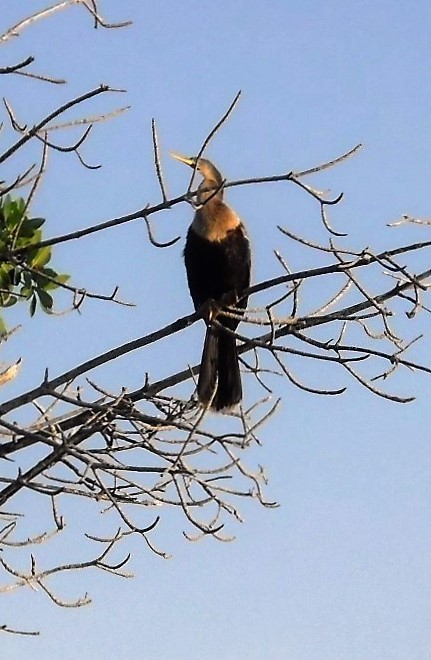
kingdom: Animalia
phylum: Chordata
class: Aves
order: Suliformes
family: Anhingidae
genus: Anhinga
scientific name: Anhinga anhinga
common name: Anhinga
